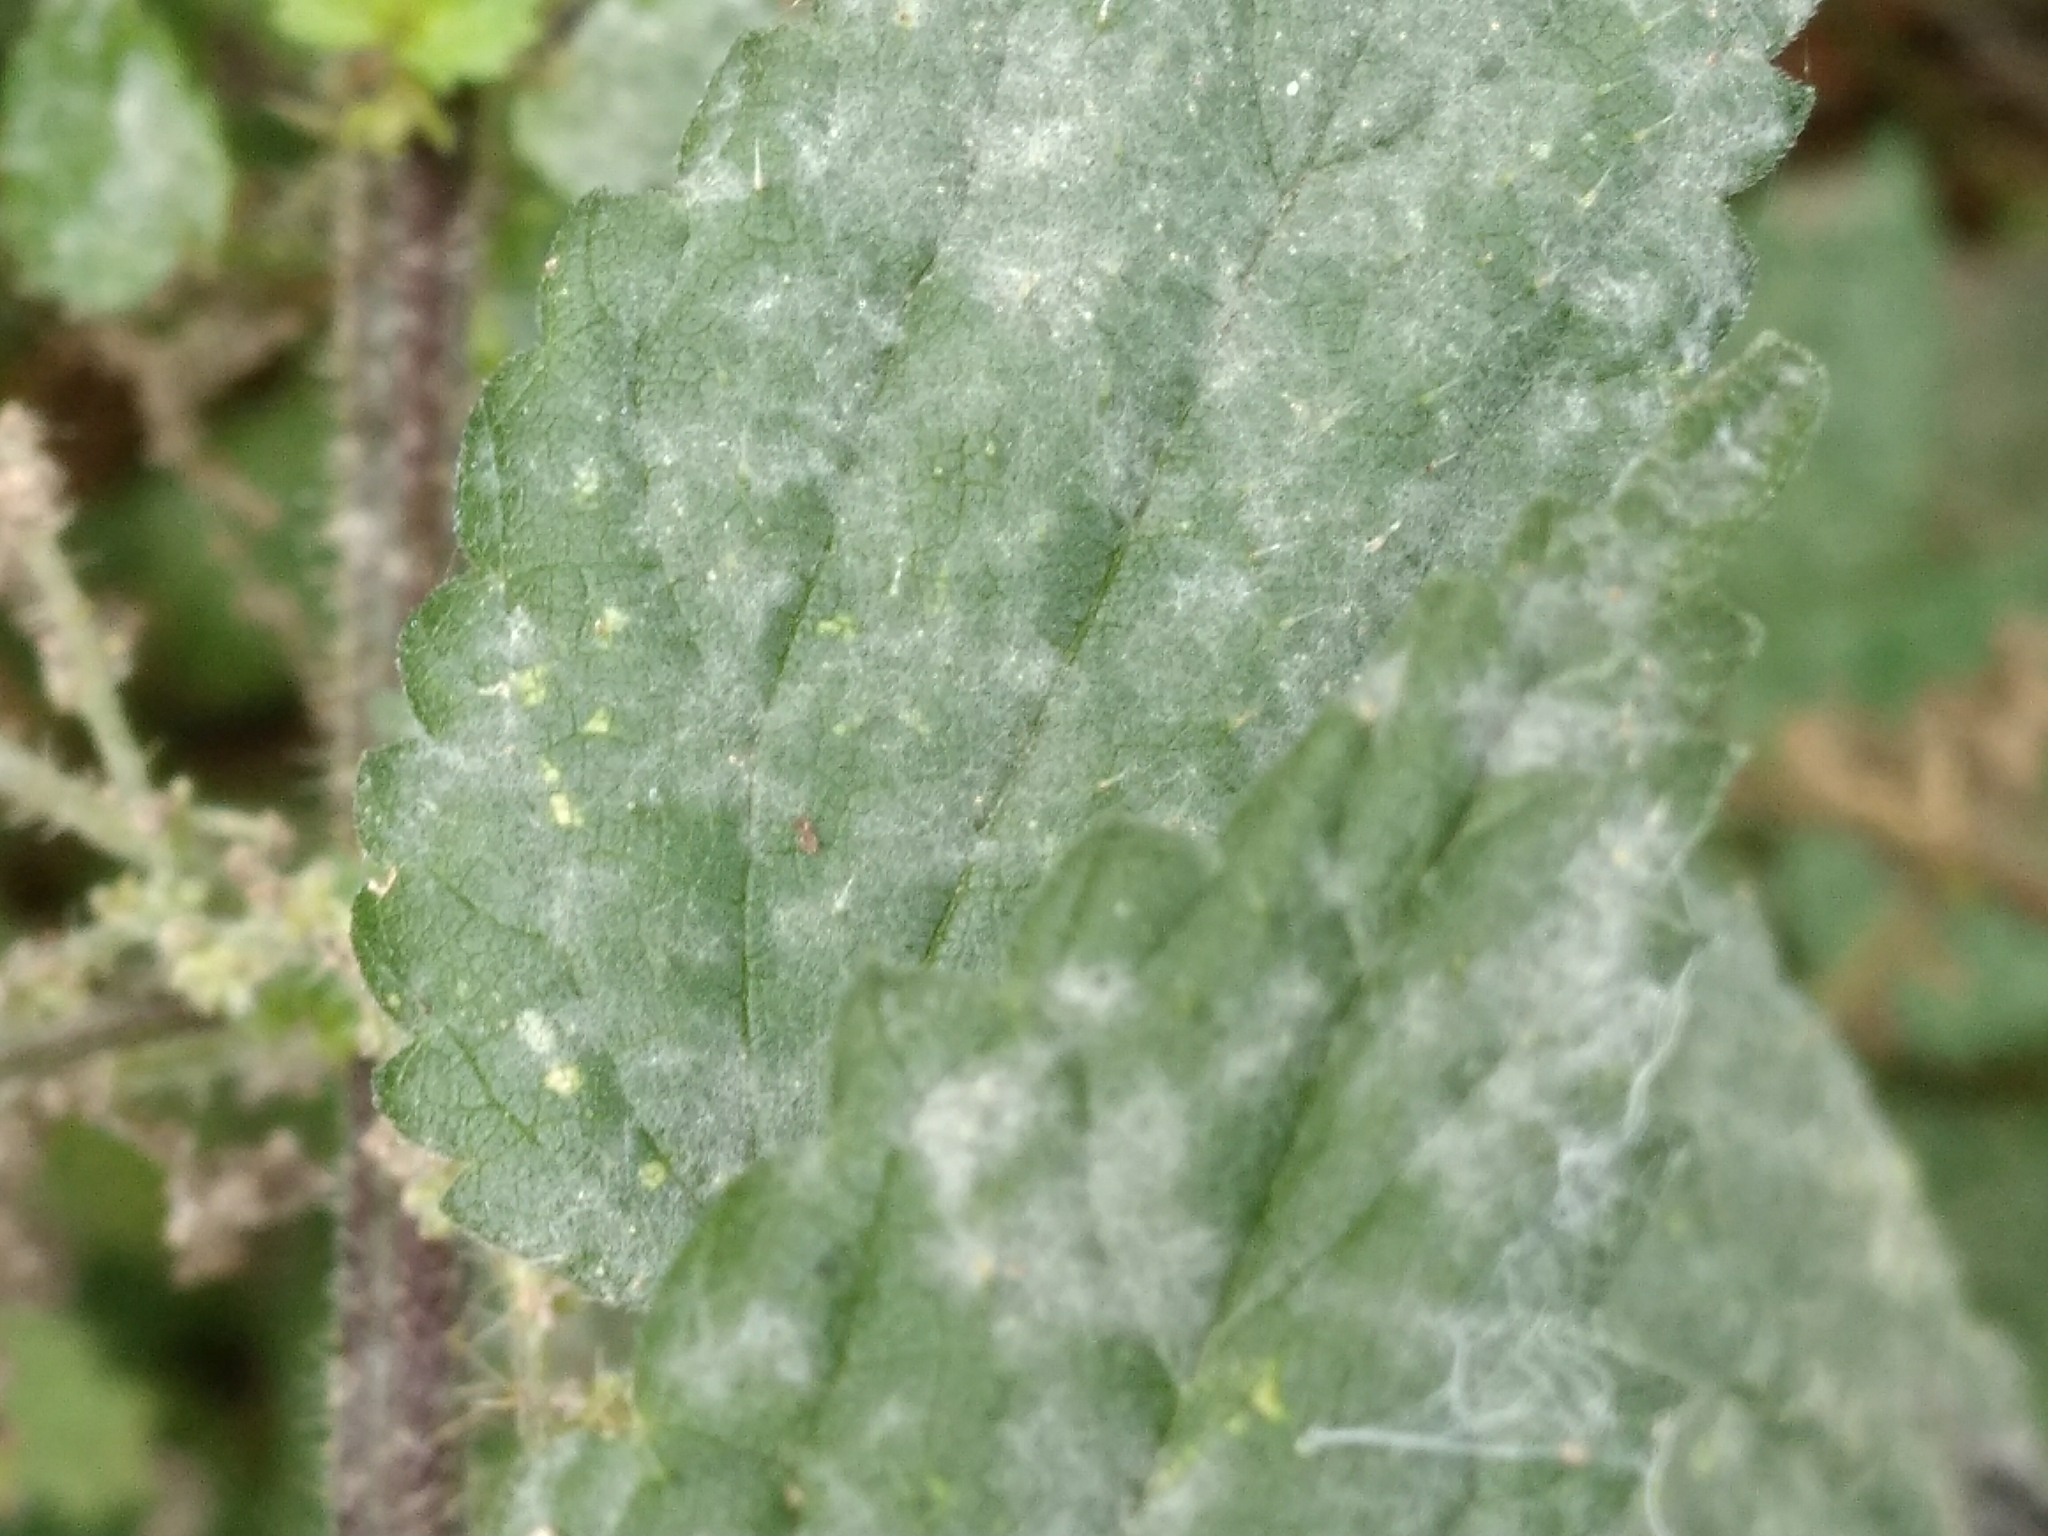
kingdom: Fungi
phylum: Ascomycota
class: Leotiomycetes
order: Helotiales
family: Erysiphaceae
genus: Erysiphe
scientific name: Erysiphe urticae
